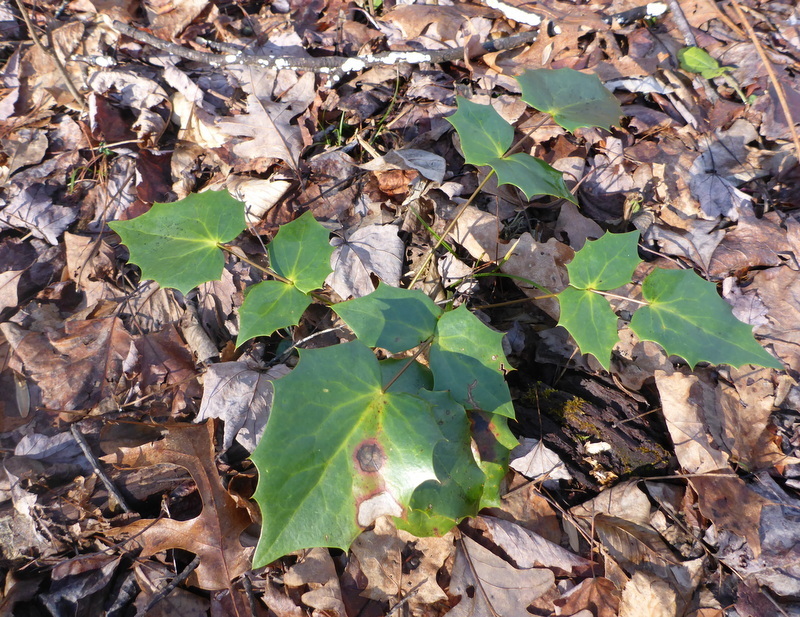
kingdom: Plantae
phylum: Tracheophyta
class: Magnoliopsida
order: Ranunculales
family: Berberidaceae
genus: Mahonia
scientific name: Mahonia bealei
